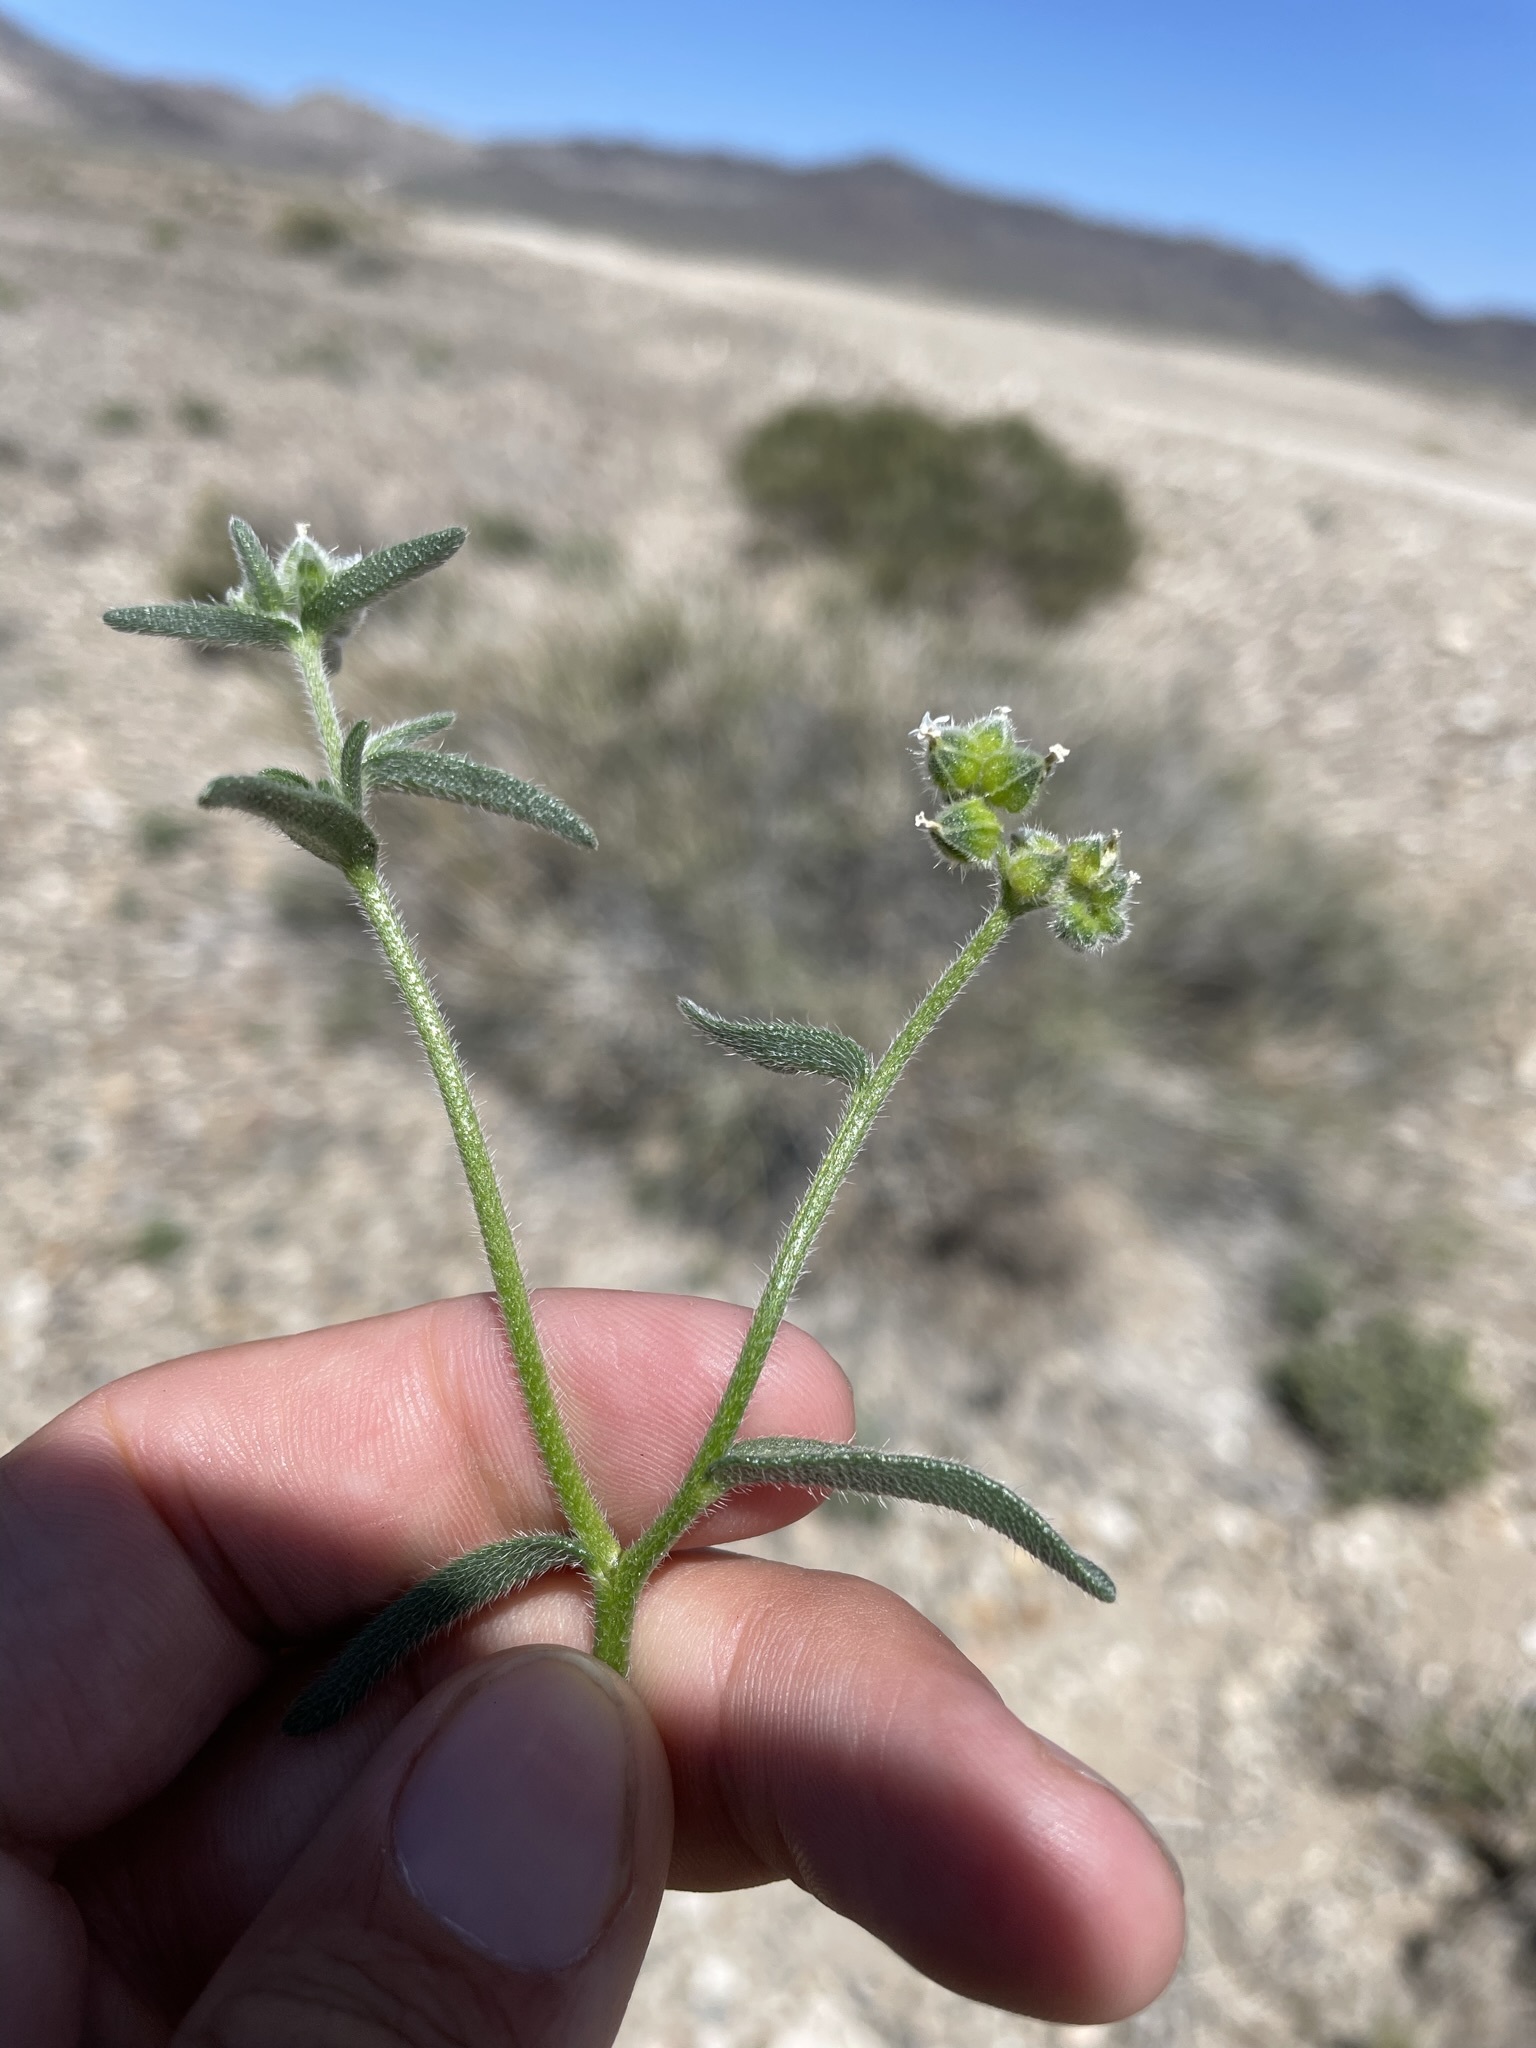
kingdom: Plantae
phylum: Tracheophyta
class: Magnoliopsida
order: Boraginales
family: Boraginaceae
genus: Cryptantha
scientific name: Cryptantha pterocarya
